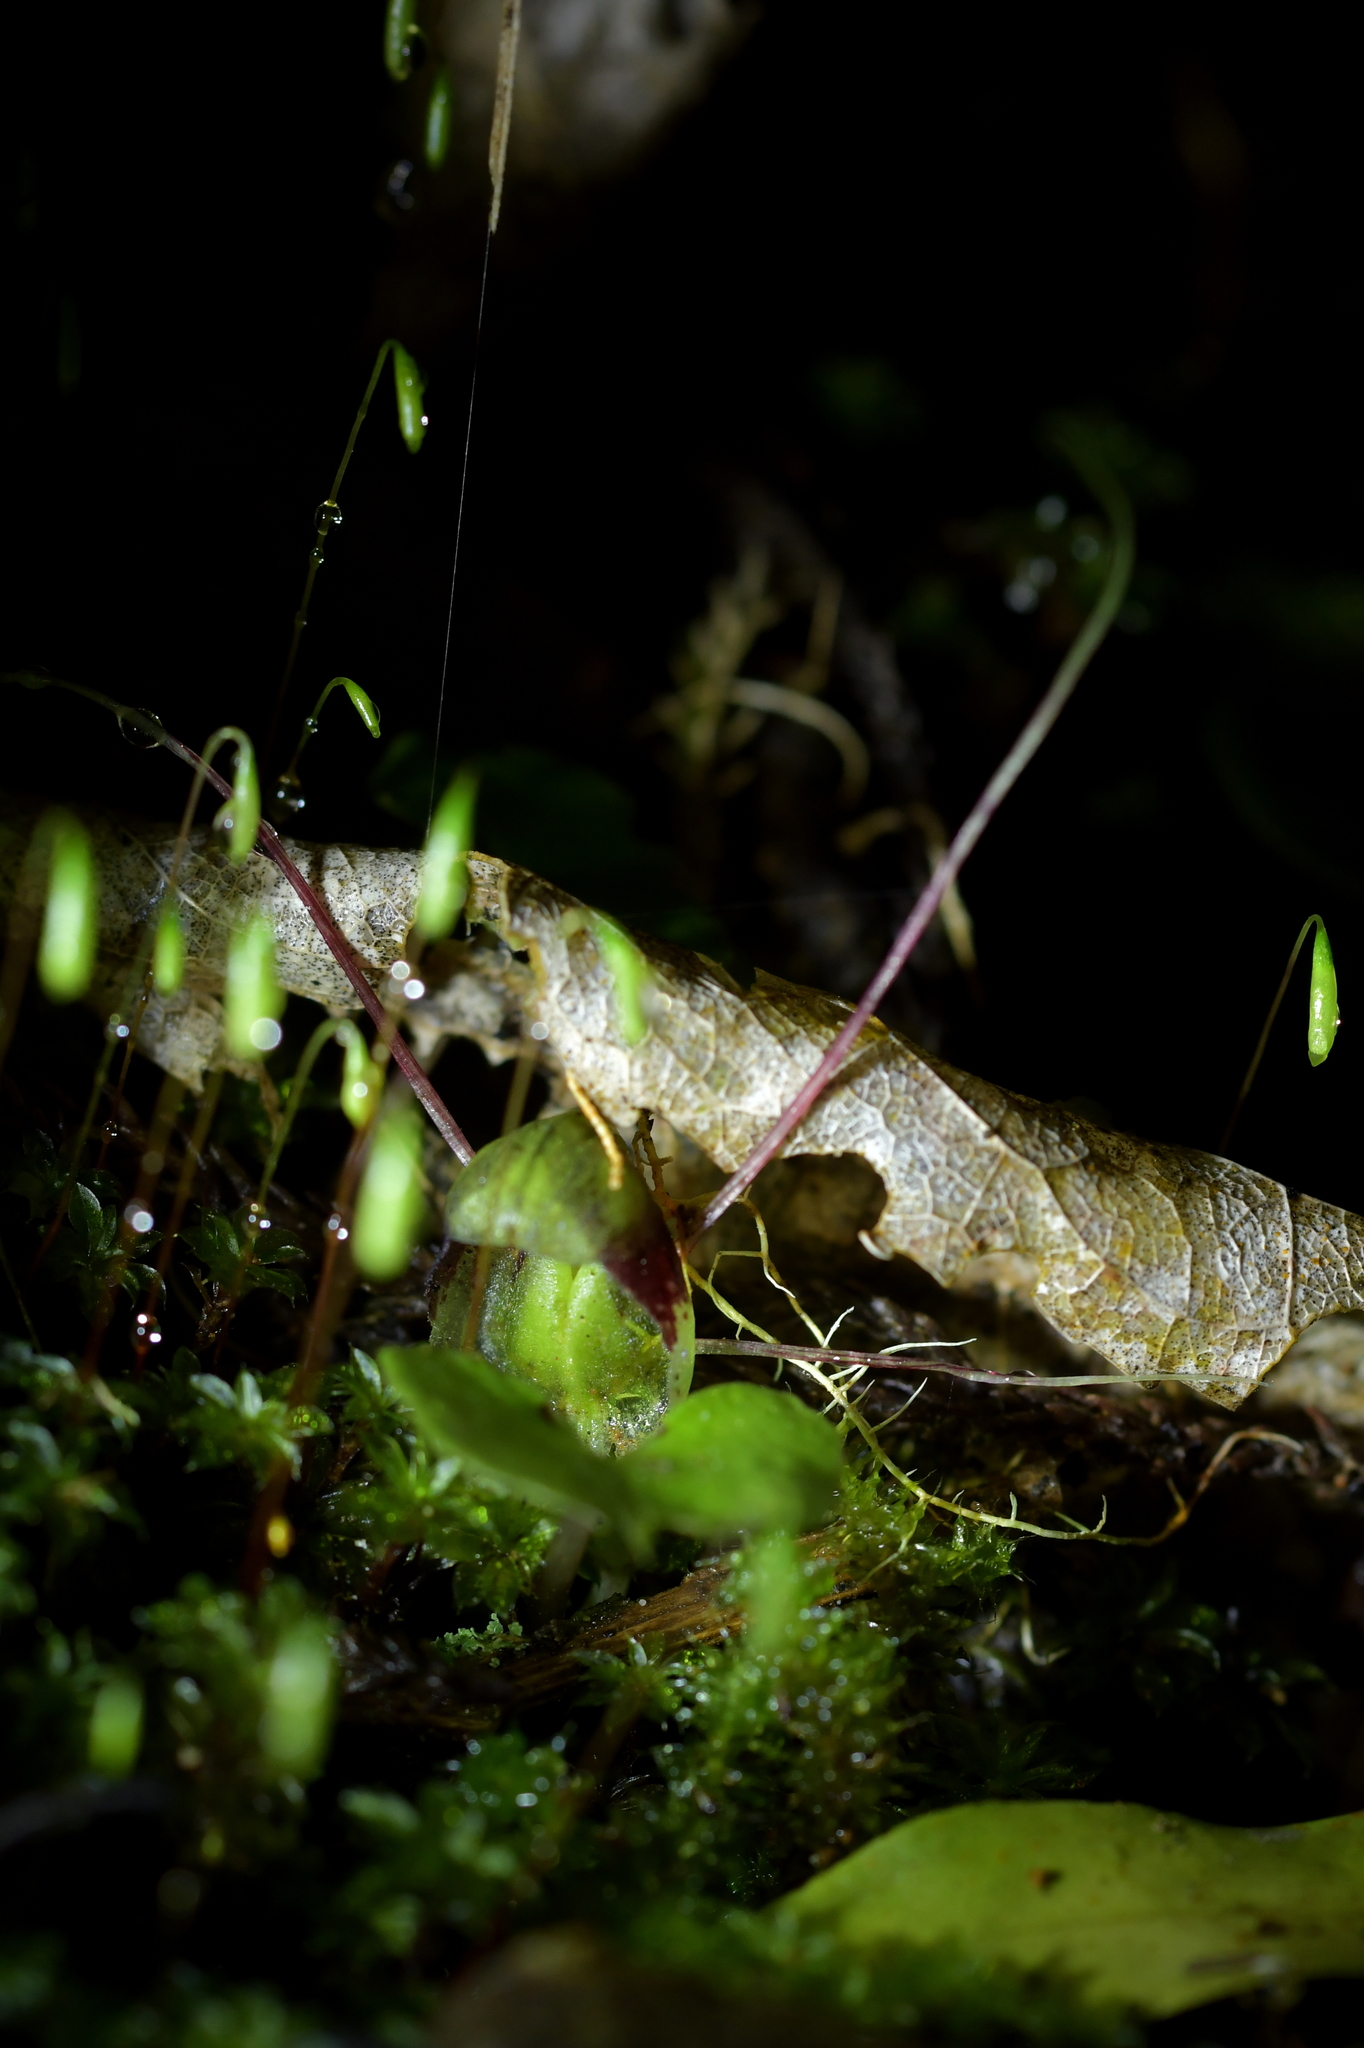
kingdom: Plantae
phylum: Tracheophyta
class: Liliopsida
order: Asparagales
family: Orchidaceae
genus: Corybas
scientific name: Corybas vitreus
